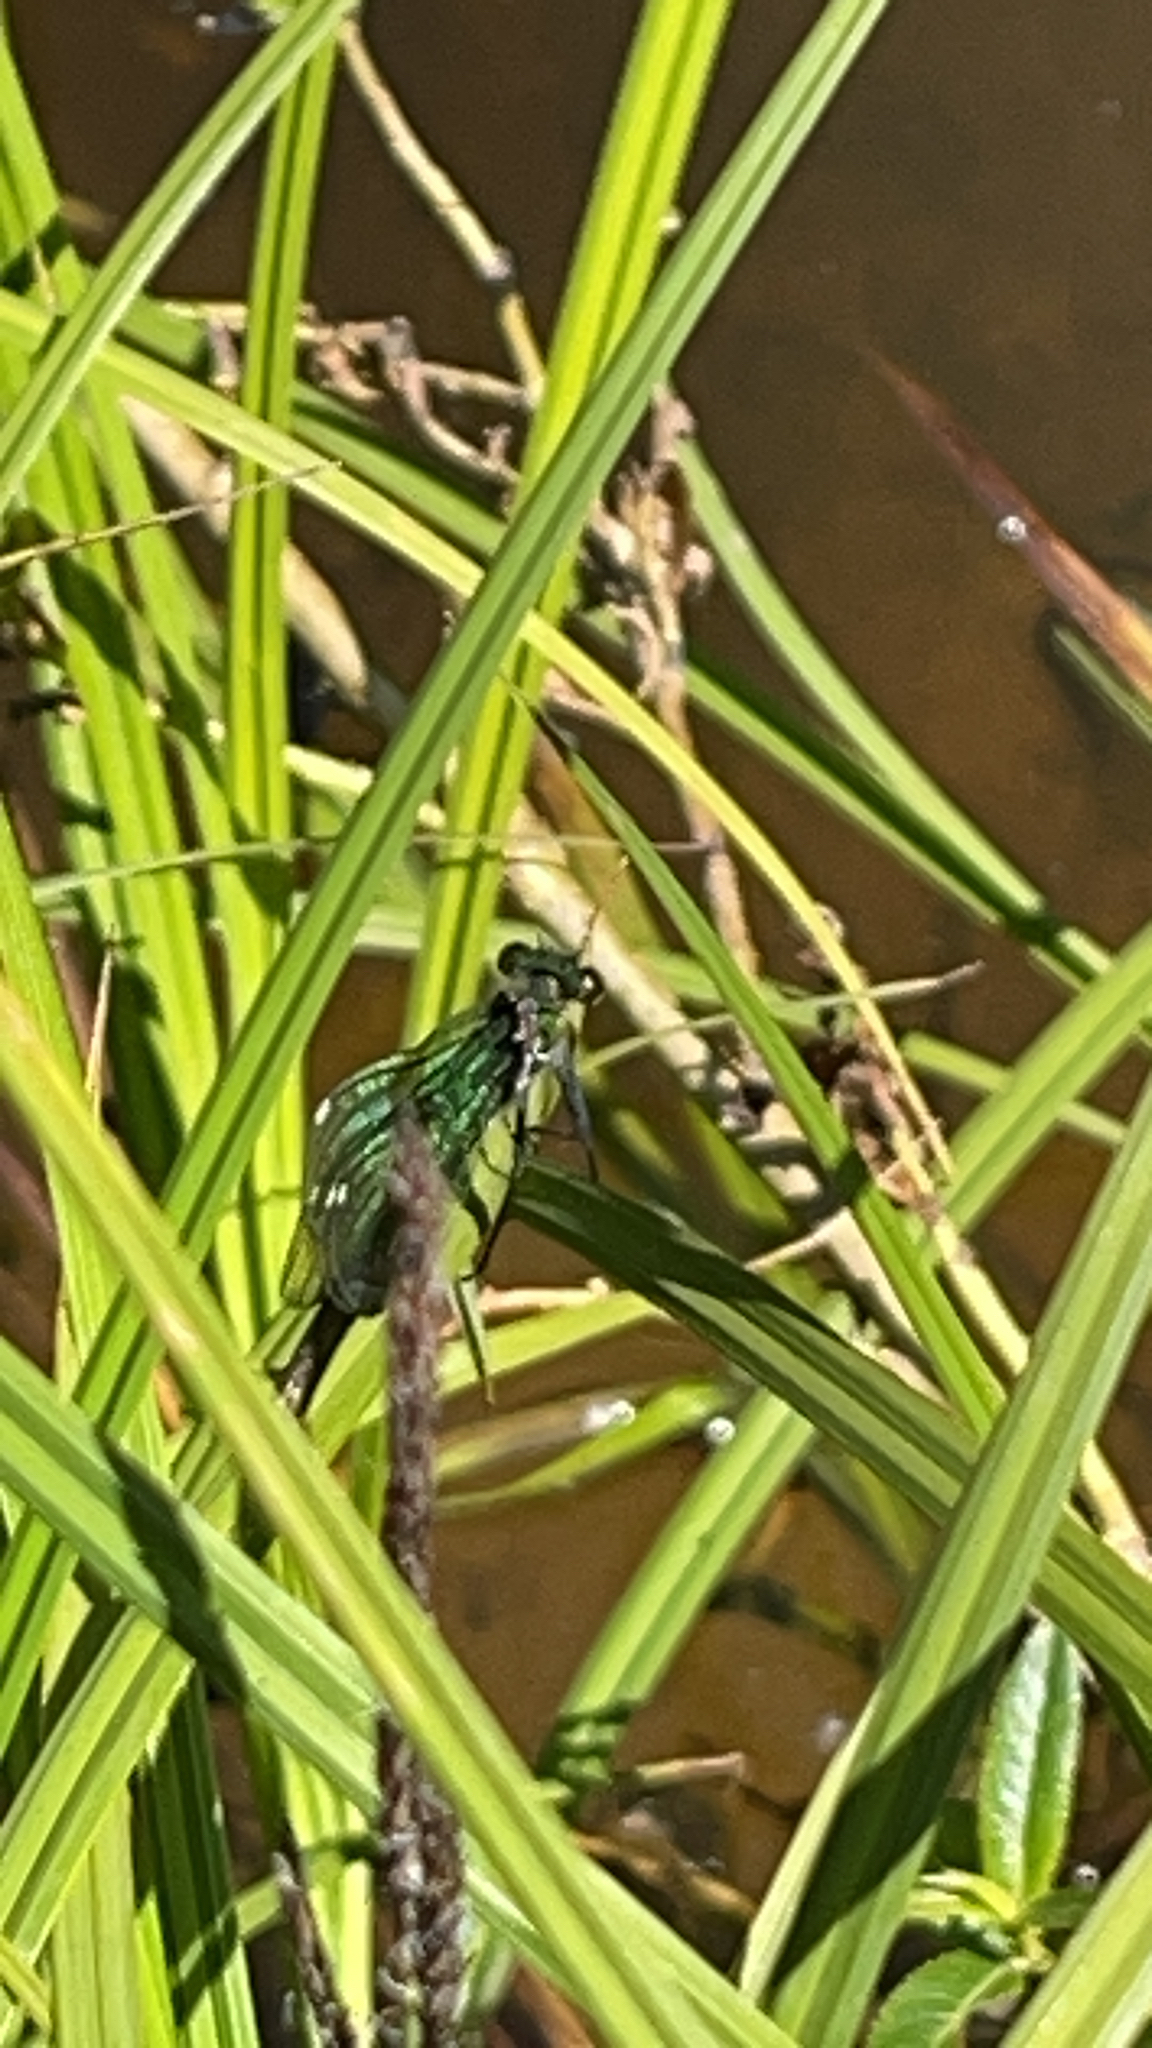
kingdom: Animalia
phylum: Arthropoda
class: Insecta
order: Odonata
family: Calopterygidae
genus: Calopteryx
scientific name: Calopteryx splendens
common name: Banded demoiselle
